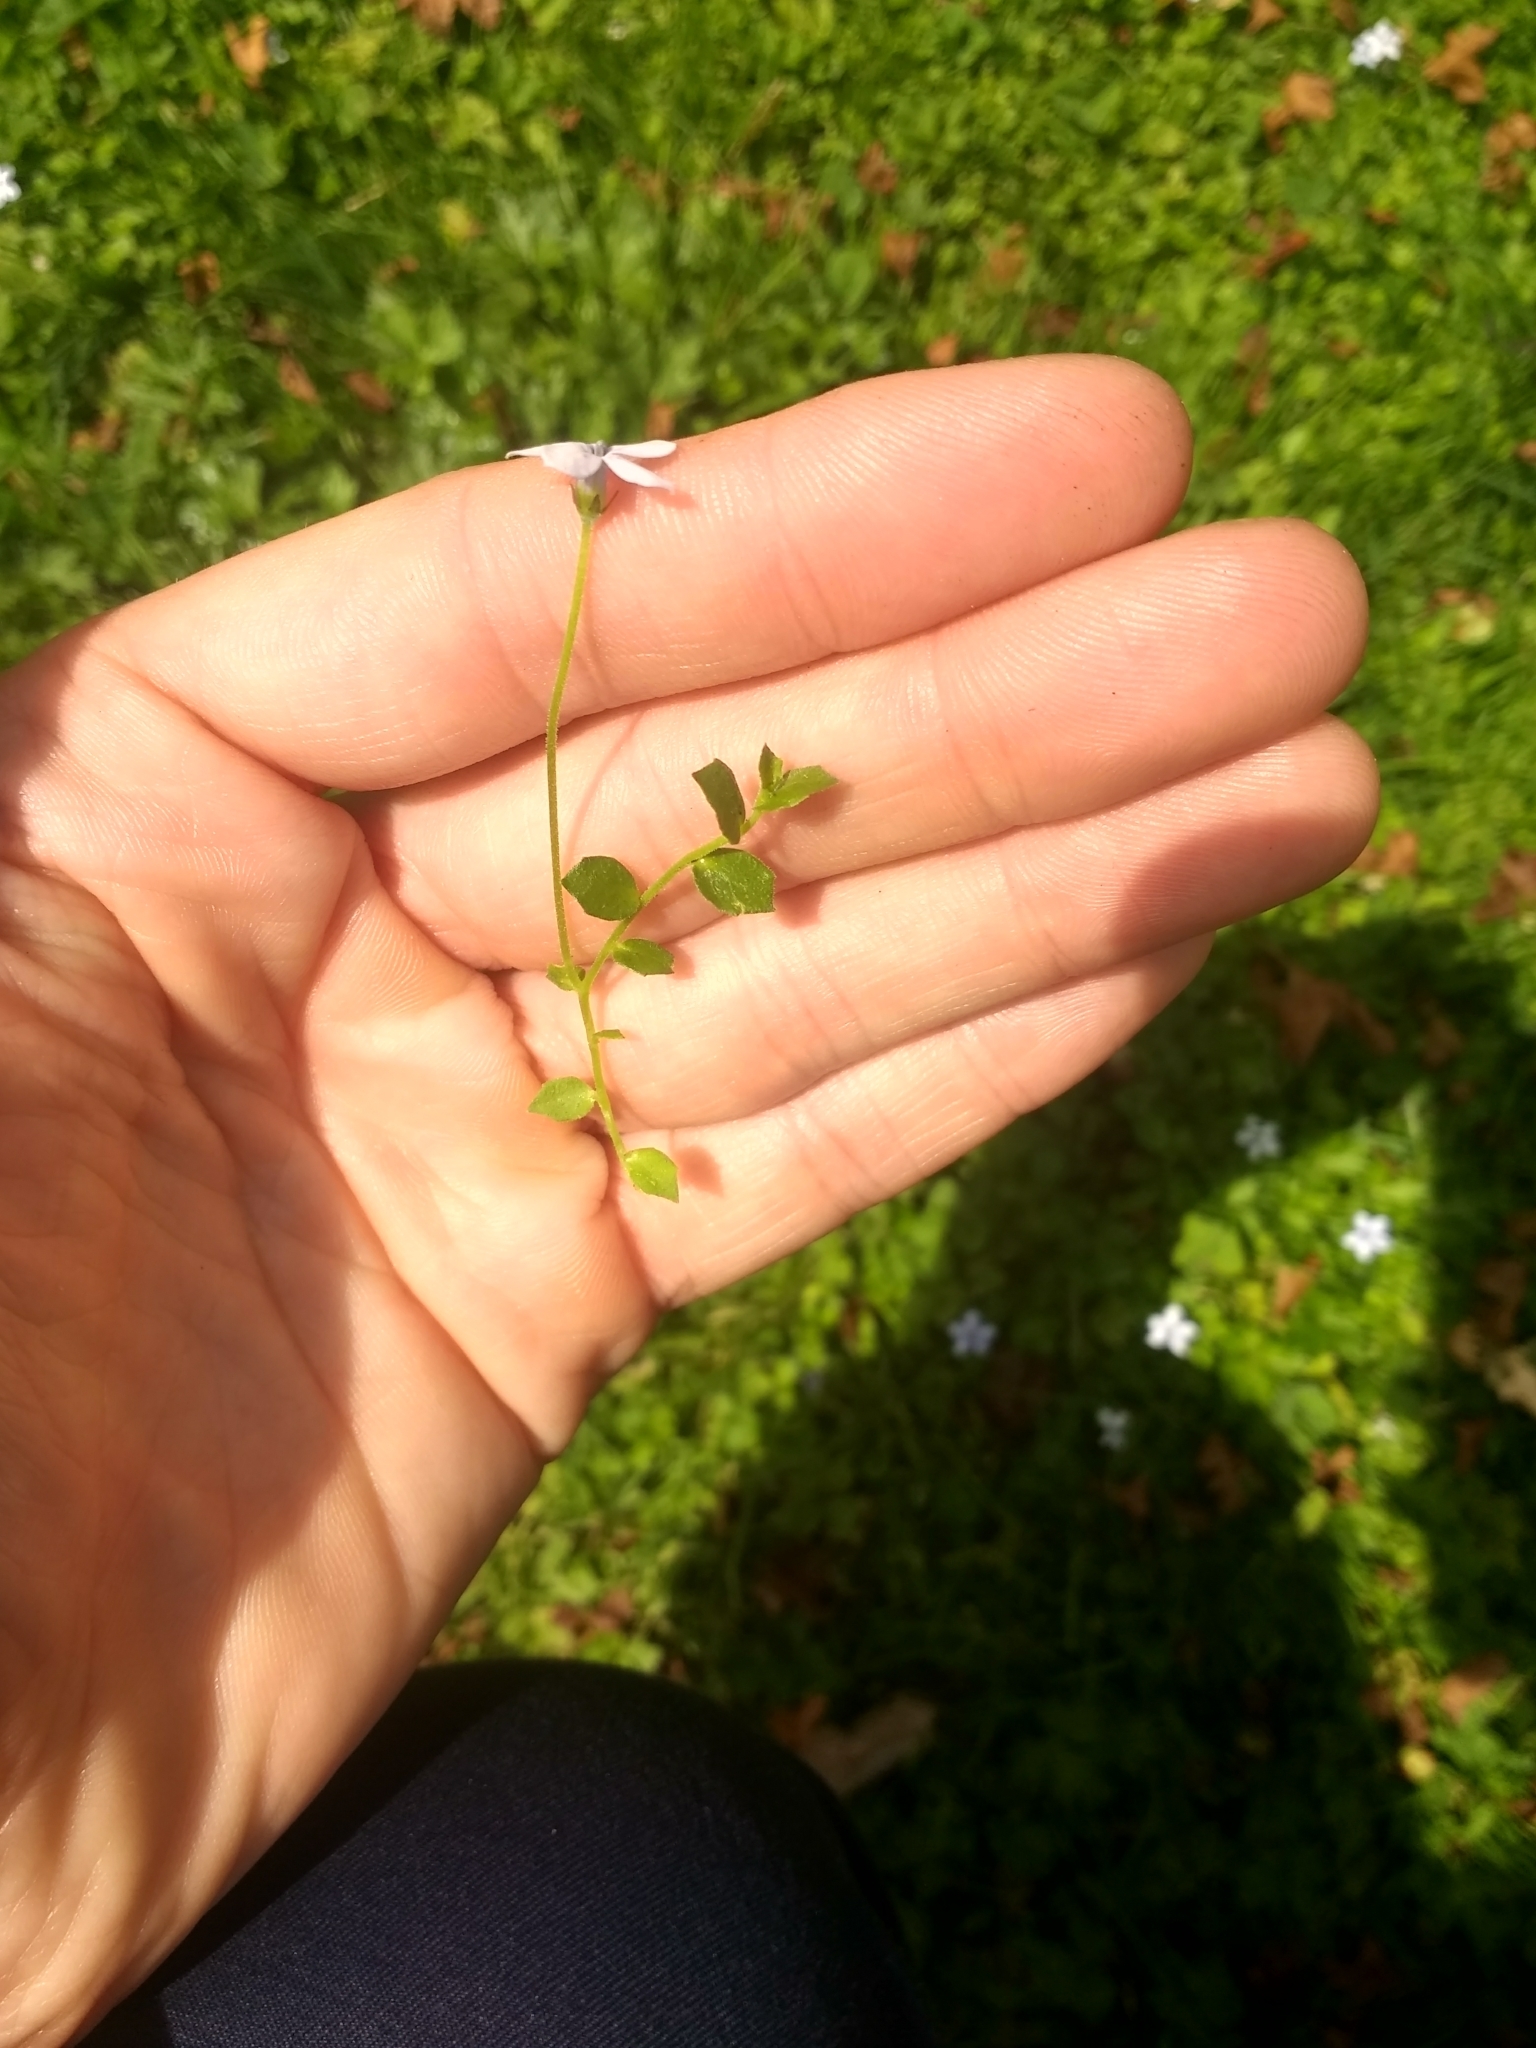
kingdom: Plantae
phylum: Tracheophyta
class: Magnoliopsida
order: Asterales
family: Campanulaceae
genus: Lobelia
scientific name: Lobelia pedunculata
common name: Matted pratia
